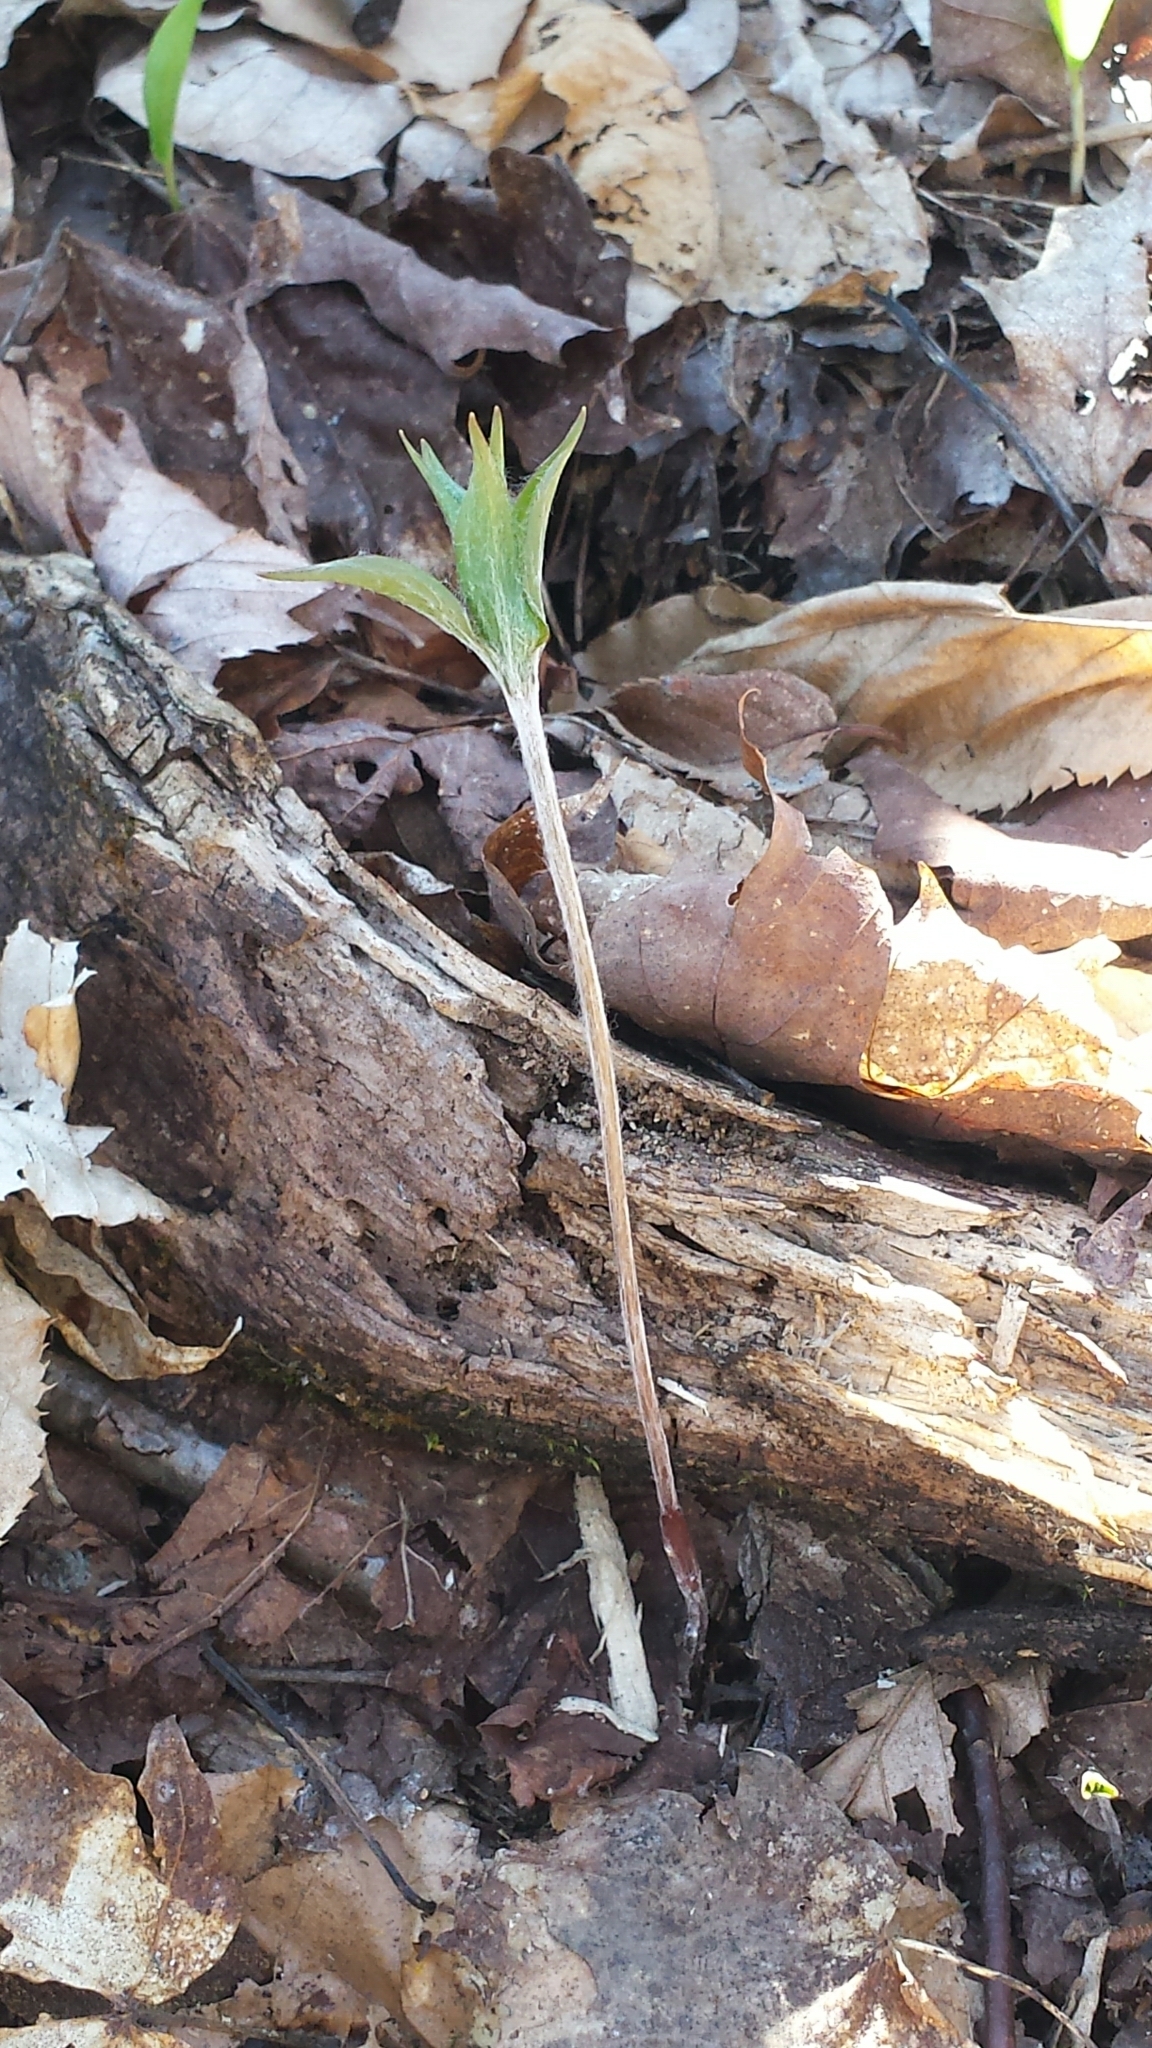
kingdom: Plantae
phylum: Tracheophyta
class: Liliopsida
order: Liliales
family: Liliaceae
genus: Medeola
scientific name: Medeola virginiana
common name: Indian cucumber-root
